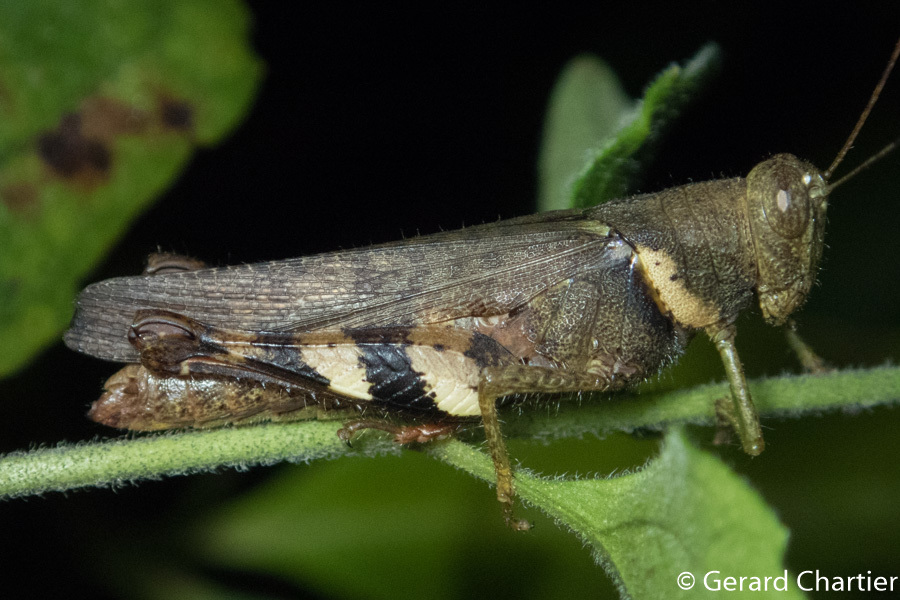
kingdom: Animalia
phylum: Arthropoda
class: Insecta
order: Orthoptera
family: Acrididae
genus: Apalacris
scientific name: Apalacris varicornis
